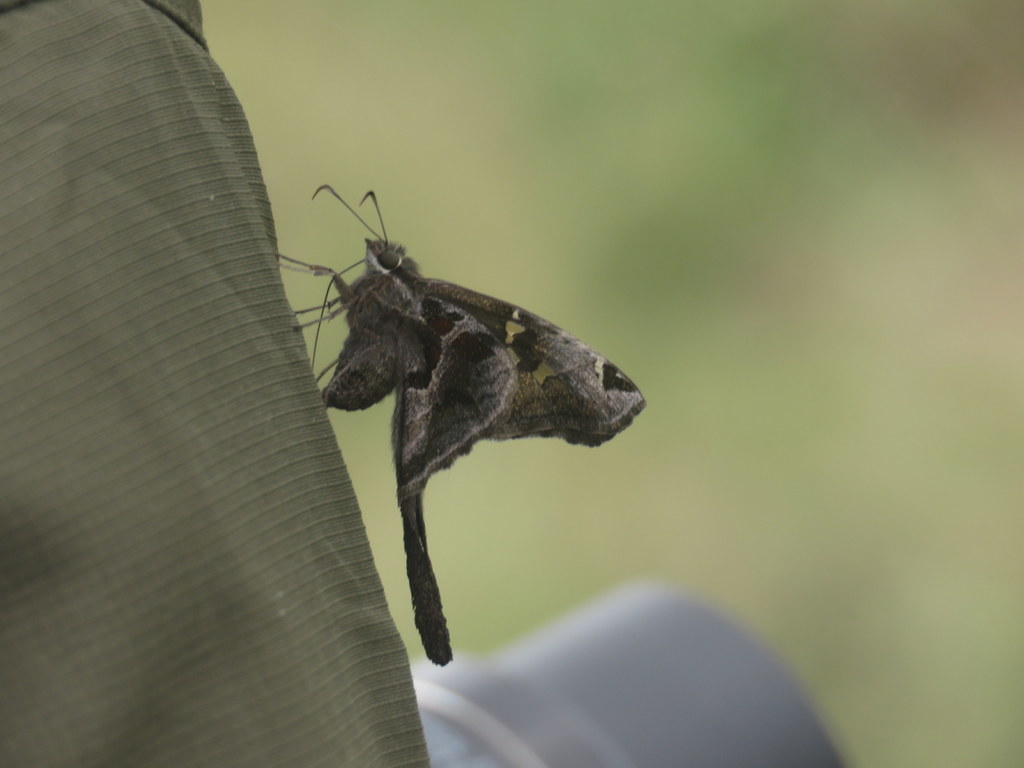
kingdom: Animalia
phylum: Arthropoda
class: Insecta
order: Lepidoptera
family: Hesperiidae
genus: Chioides
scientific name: Chioides catillus
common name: Silverbanded skipper
